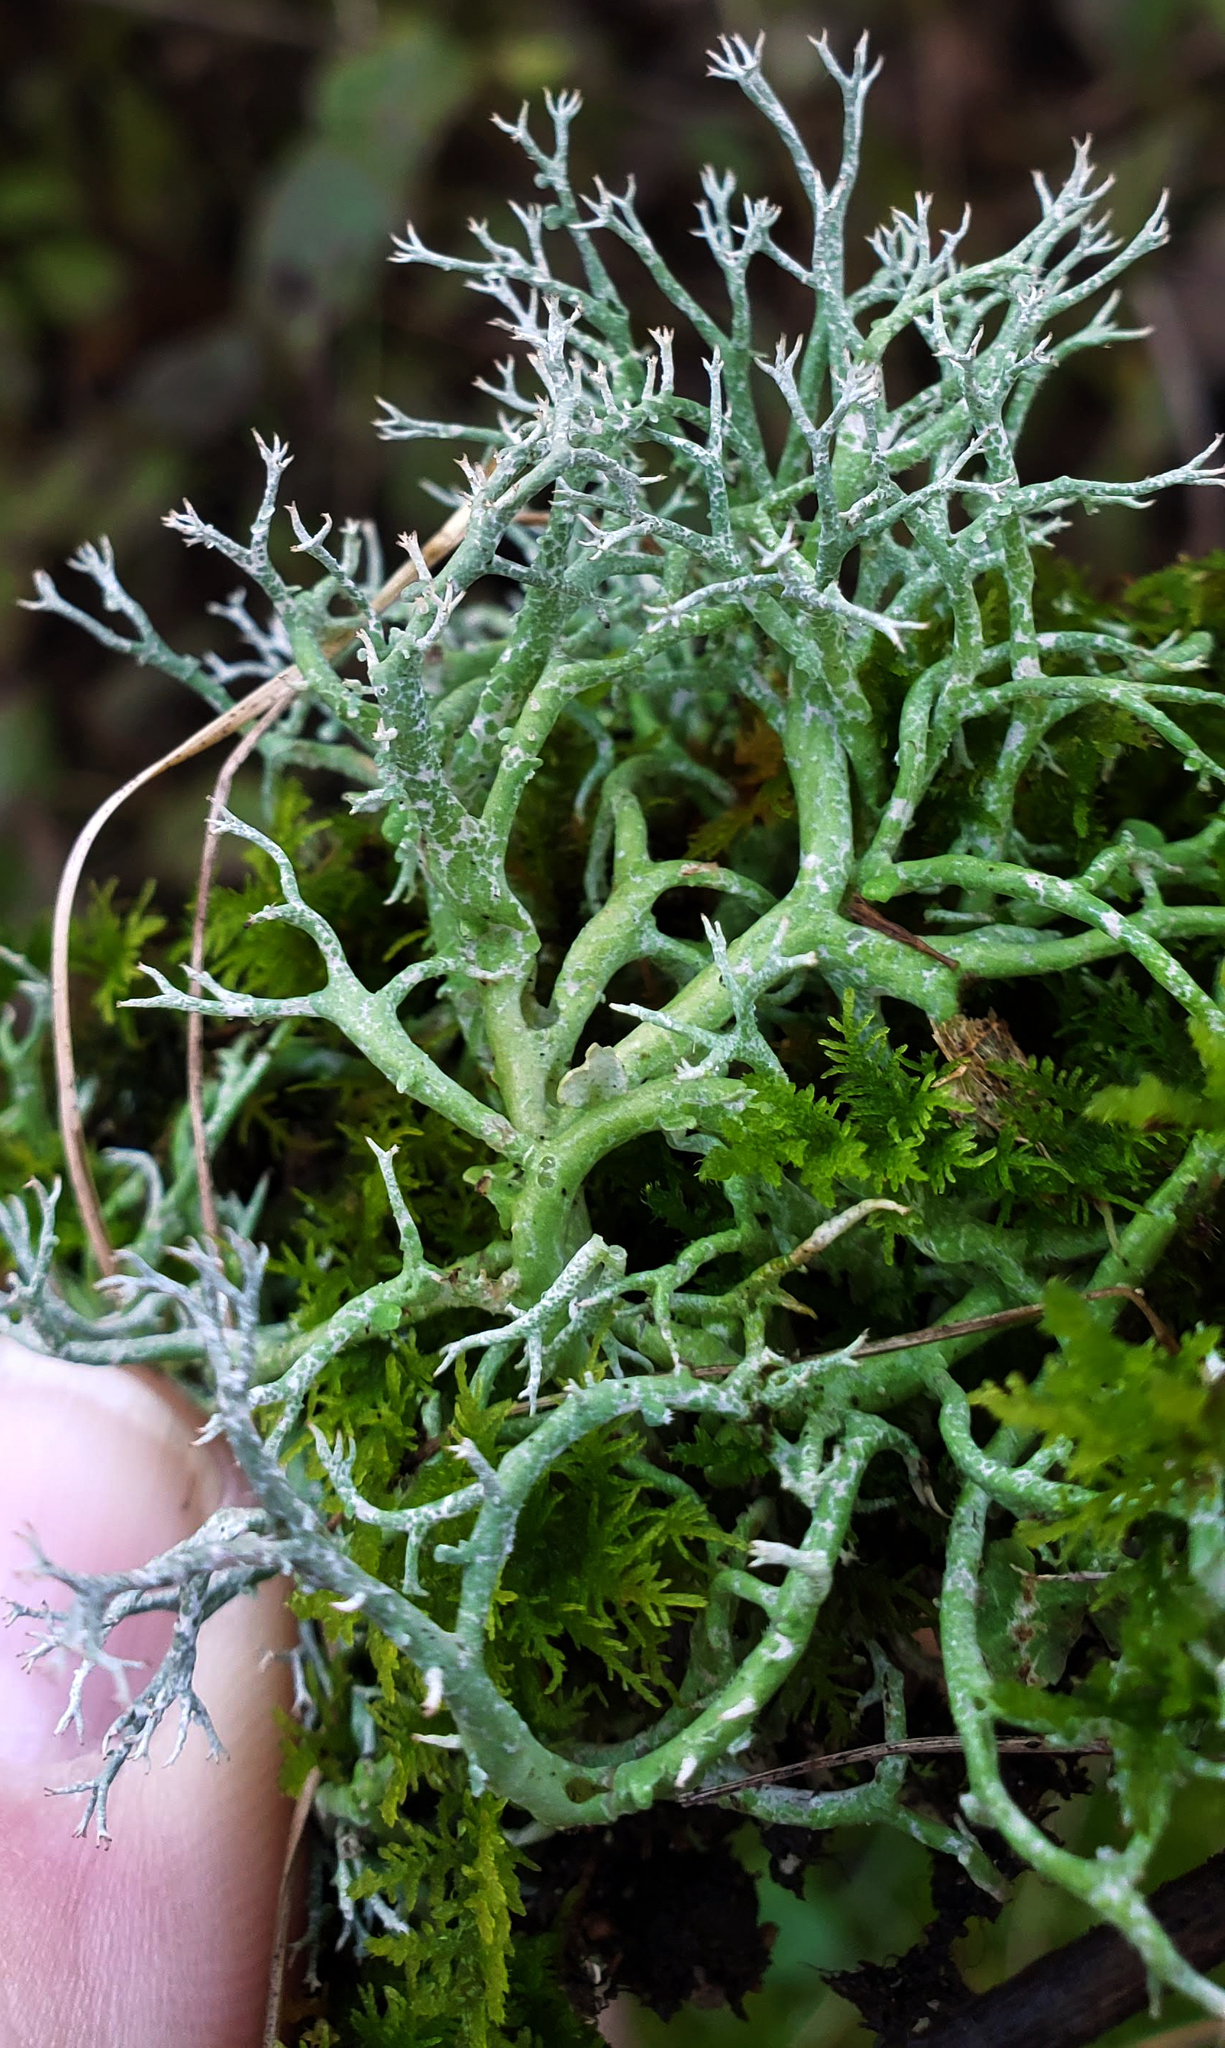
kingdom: Fungi
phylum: Ascomycota
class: Lecanoromycetes
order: Lecanorales
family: Cladoniaceae
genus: Cladonia
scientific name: Cladonia furcata
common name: Many-forked cladonia
